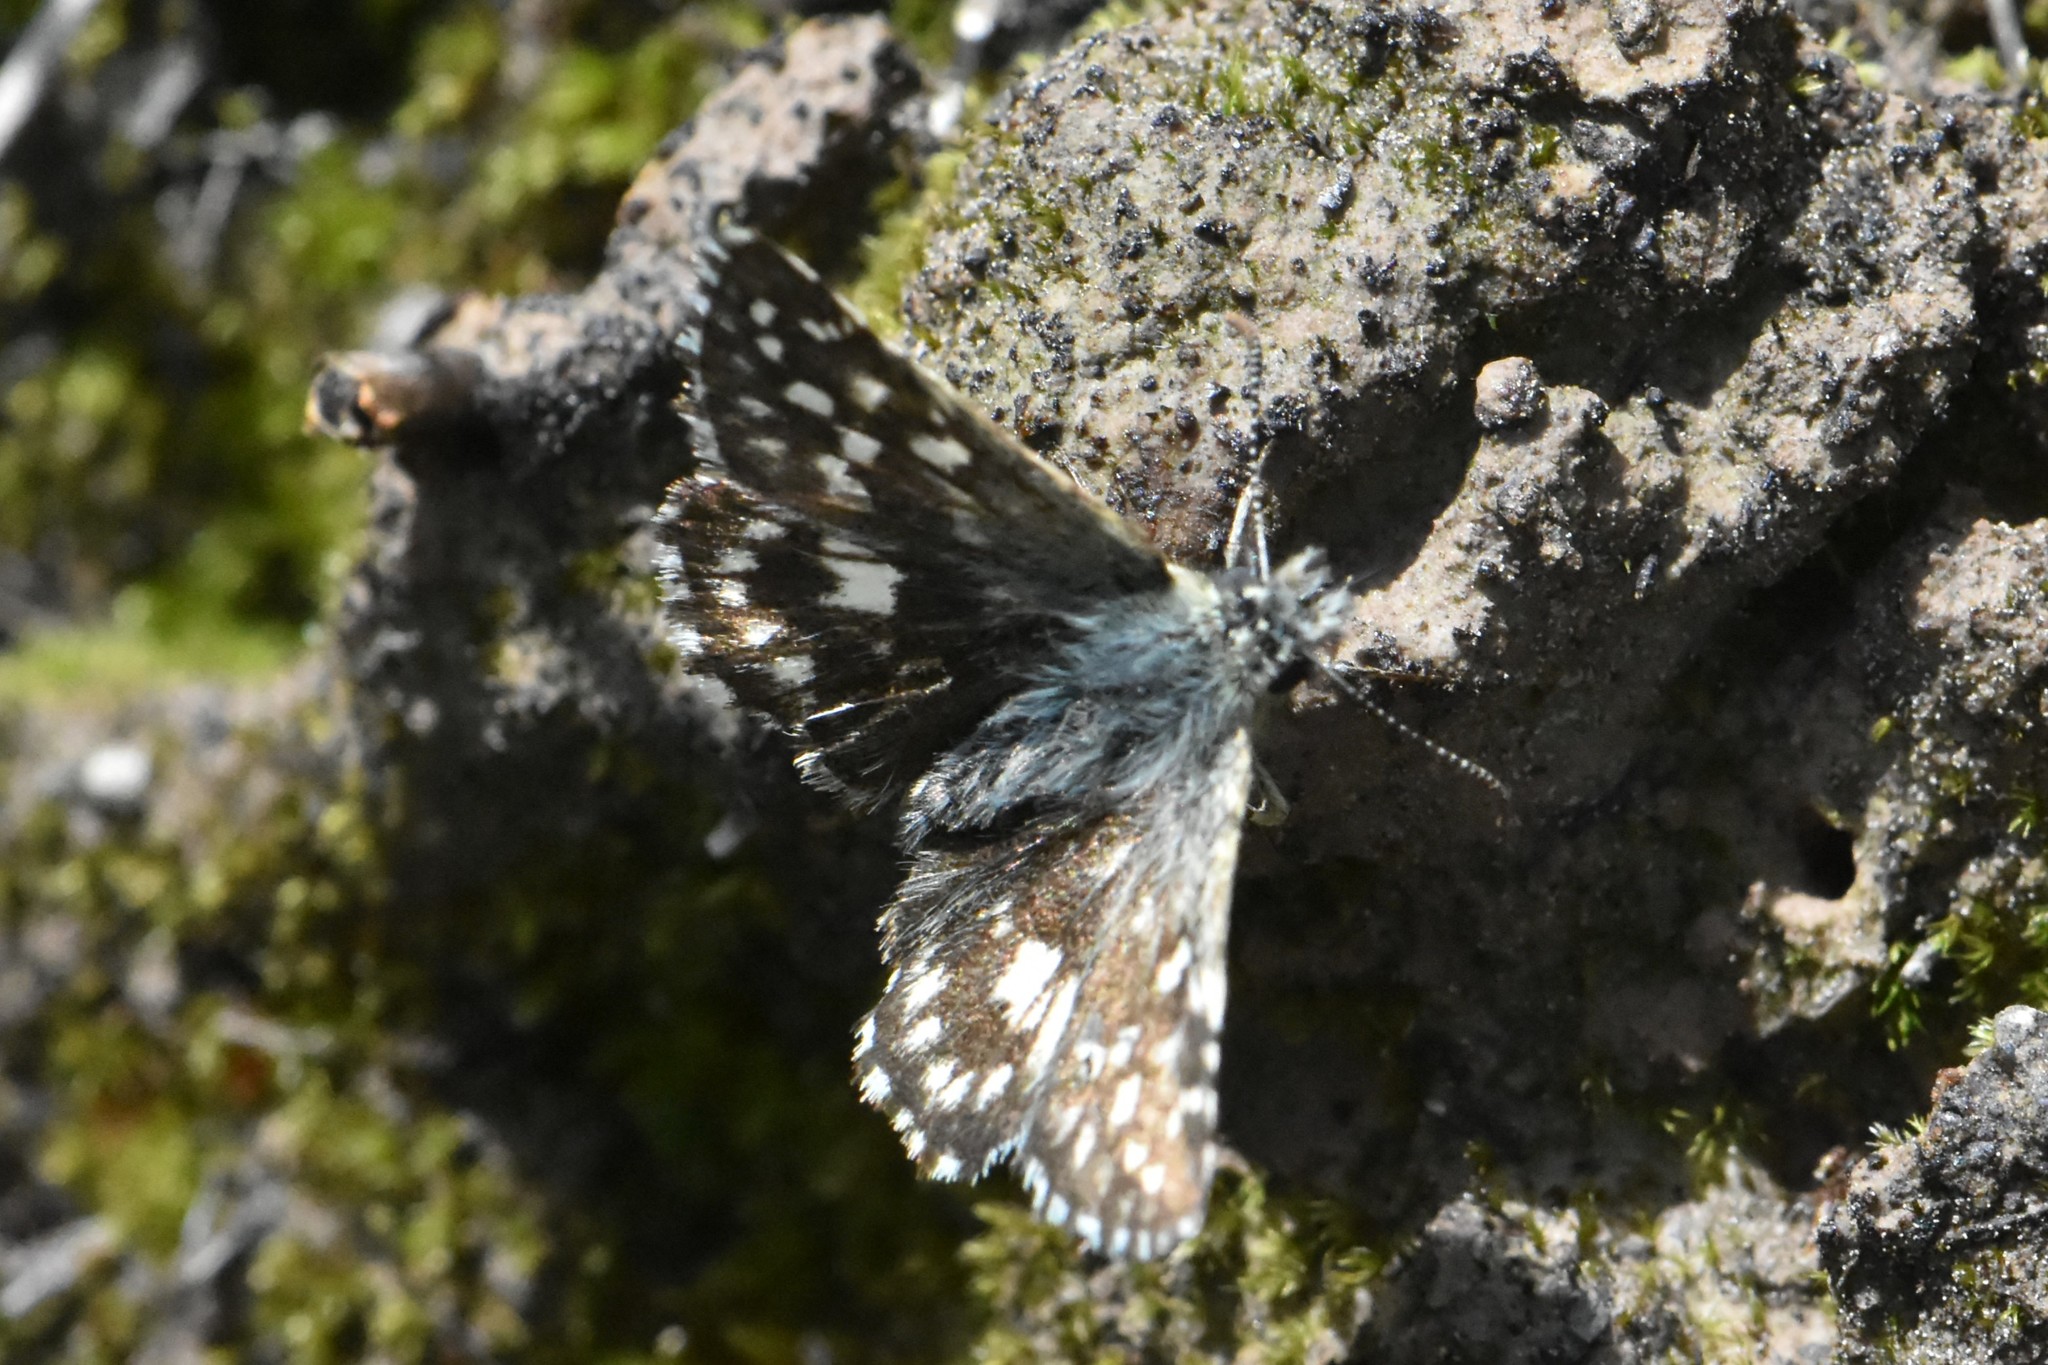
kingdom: Animalia
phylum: Arthropoda
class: Insecta
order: Lepidoptera
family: Hesperiidae
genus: Pyrgus
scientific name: Pyrgus malvae
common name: Grizzled skipper
